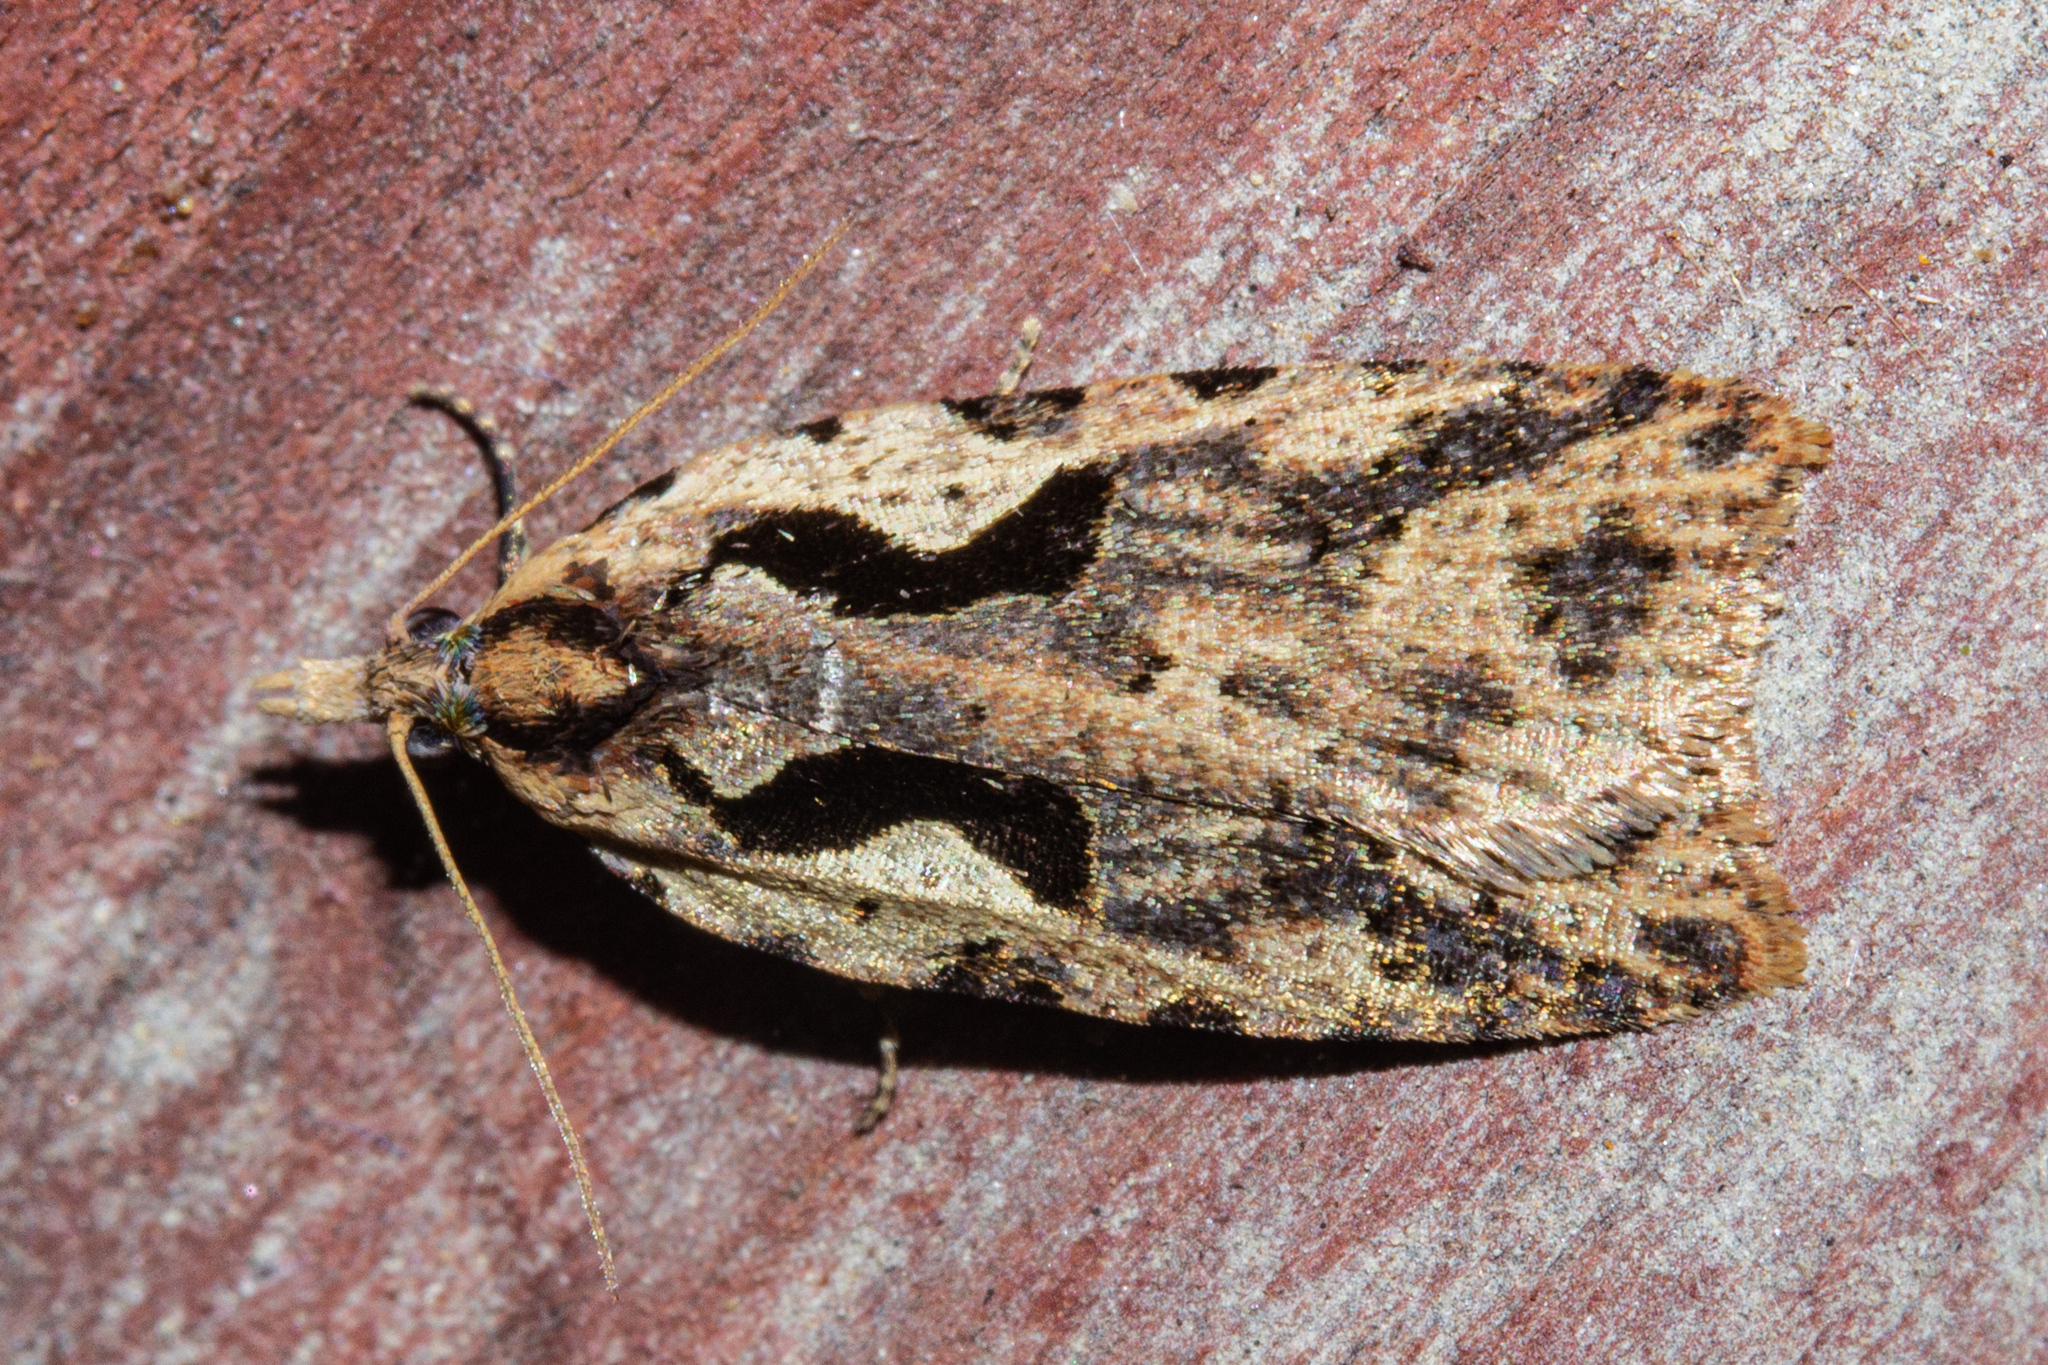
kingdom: Animalia
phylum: Arthropoda
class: Insecta
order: Lepidoptera
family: Tortricidae
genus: Cnephasia
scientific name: Cnephasia jactatana
